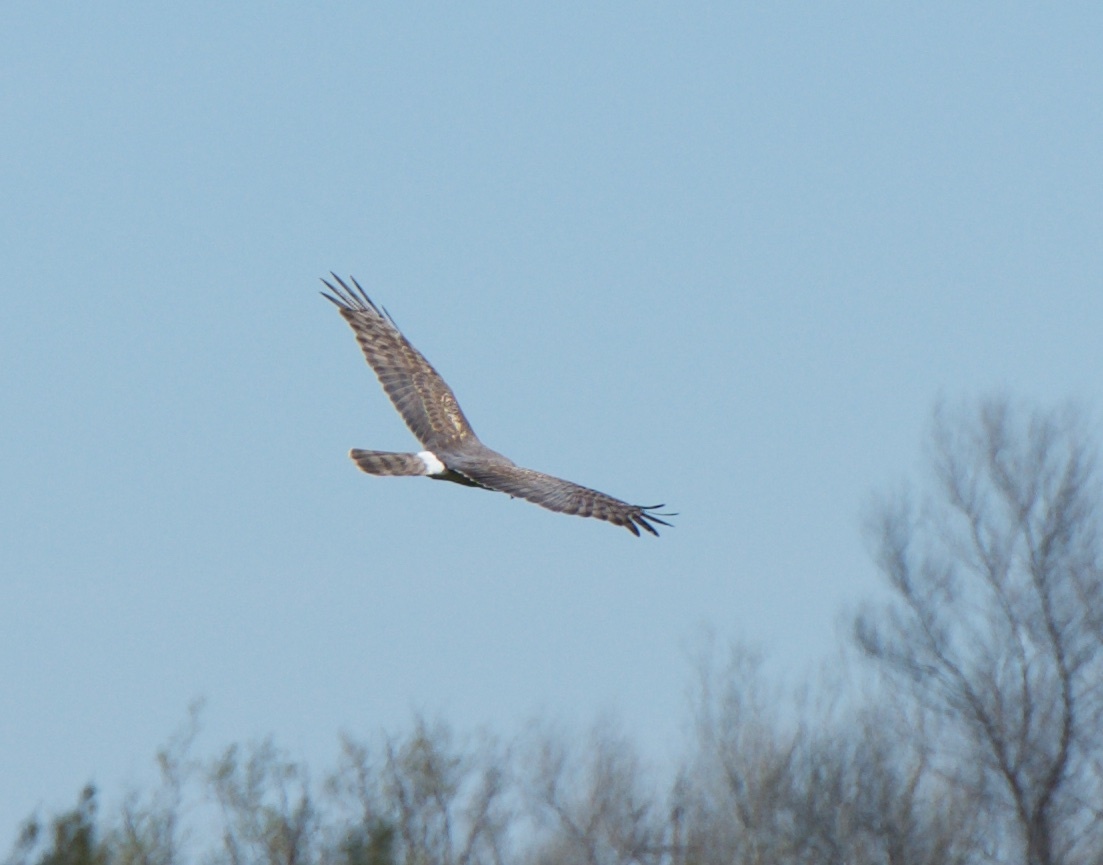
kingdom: Animalia
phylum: Chordata
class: Aves
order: Accipitriformes
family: Accipitridae
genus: Circus
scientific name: Circus cyaneus
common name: Hen harrier
